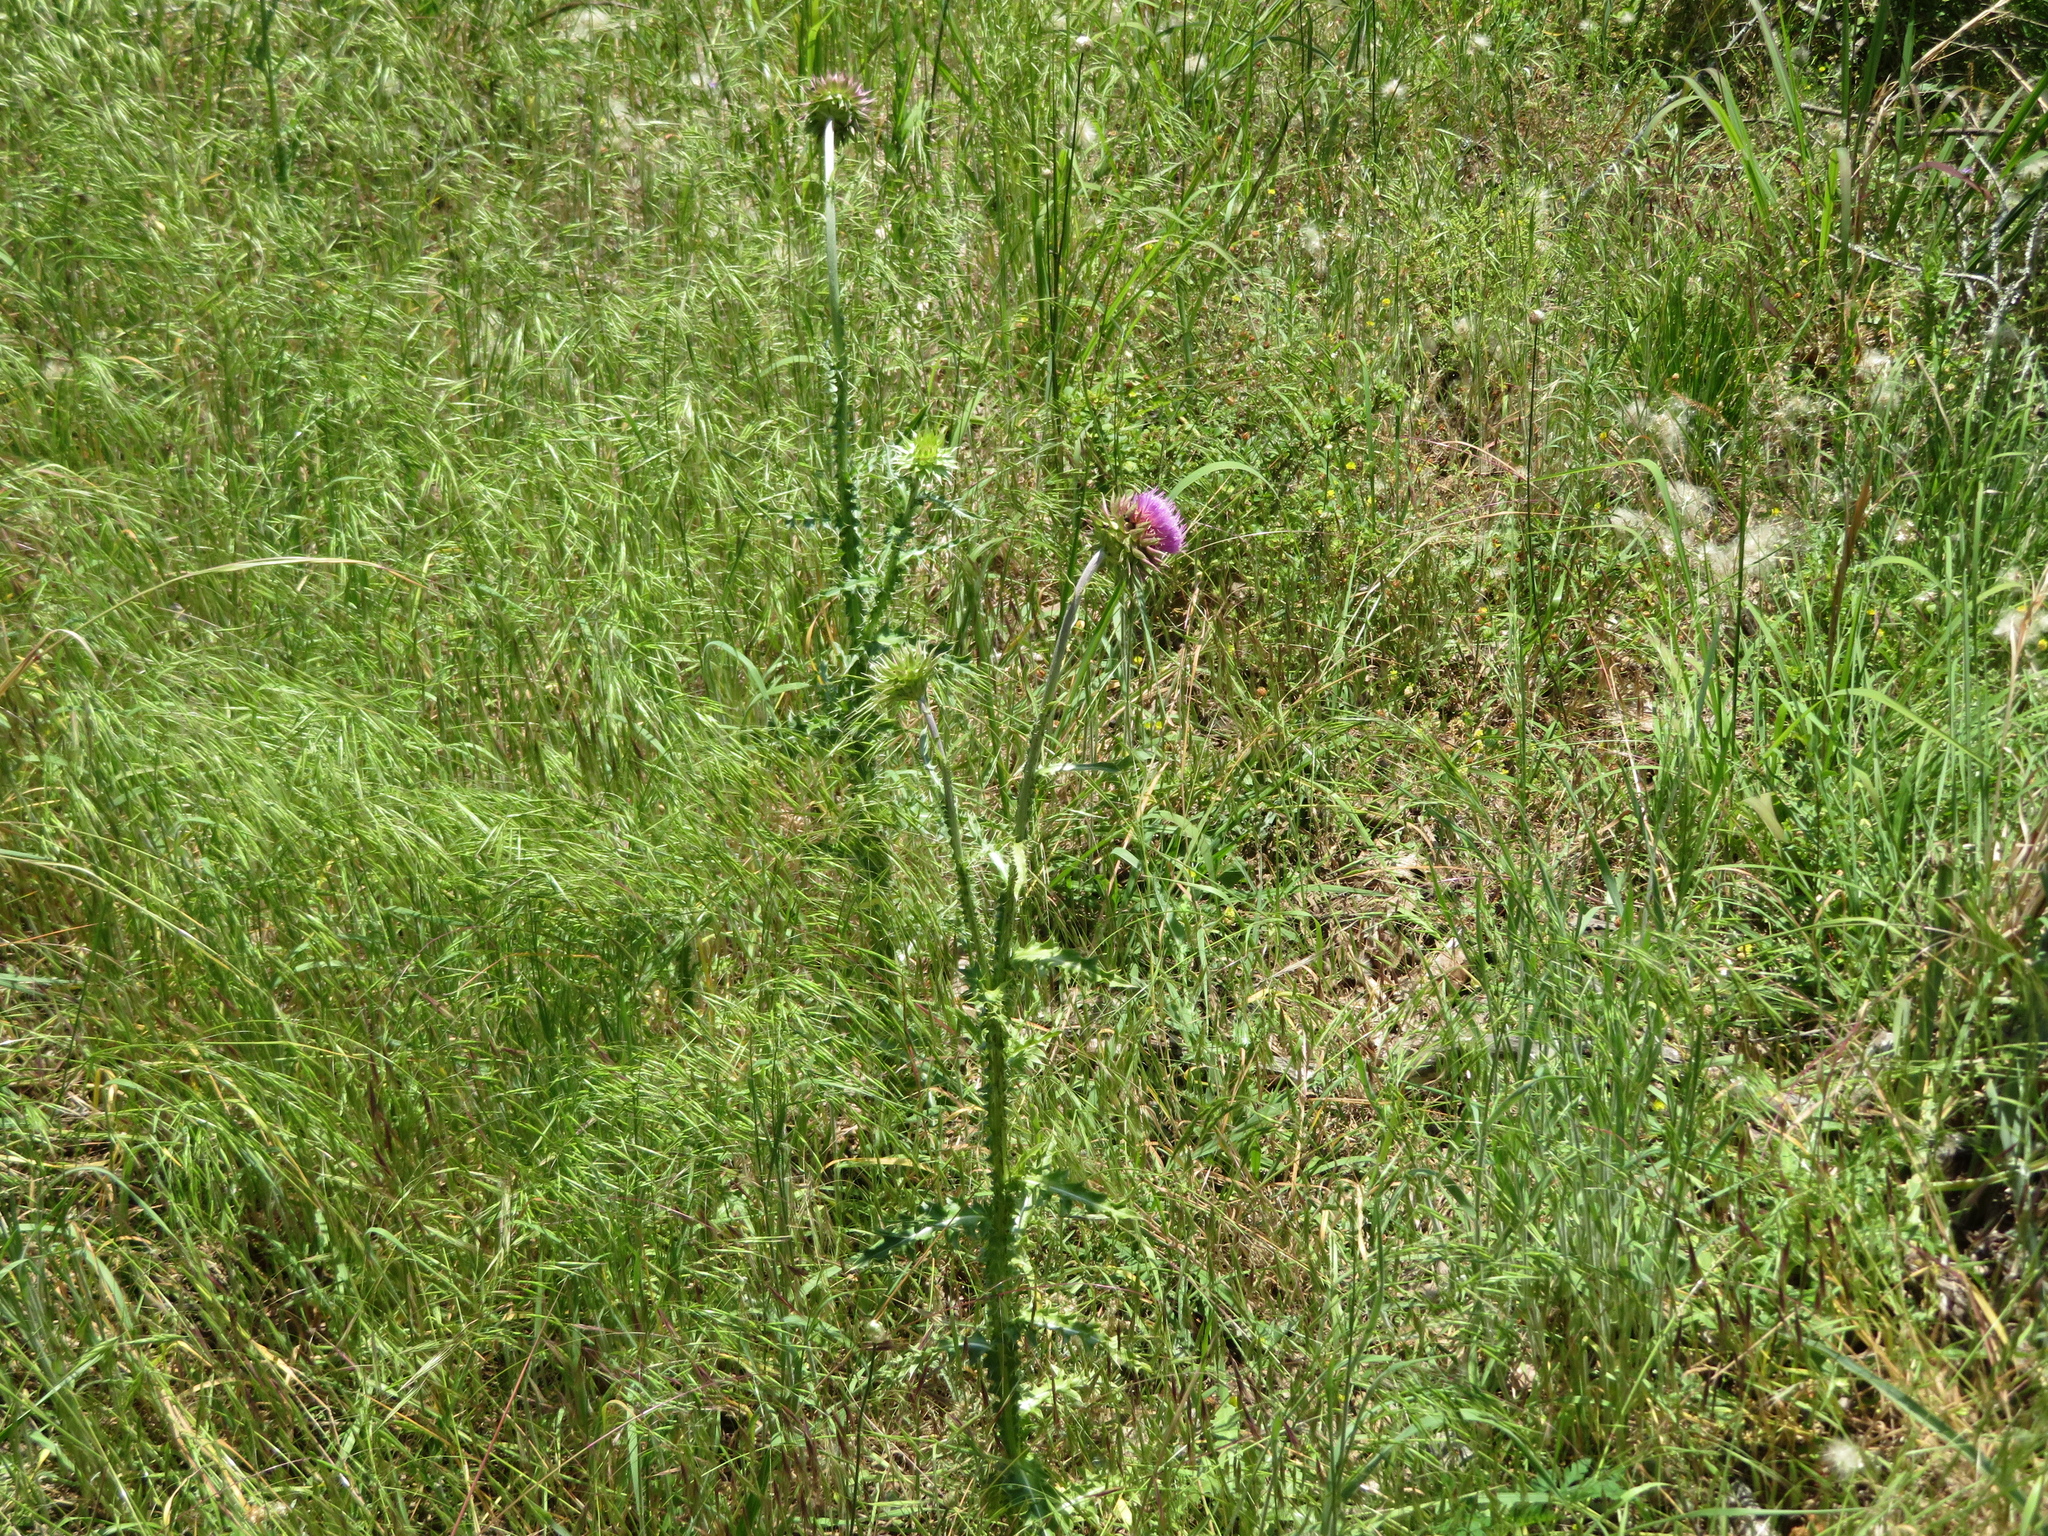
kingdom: Plantae
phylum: Tracheophyta
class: Magnoliopsida
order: Asterales
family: Asteraceae
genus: Carduus
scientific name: Carduus nutans
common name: Musk thistle
